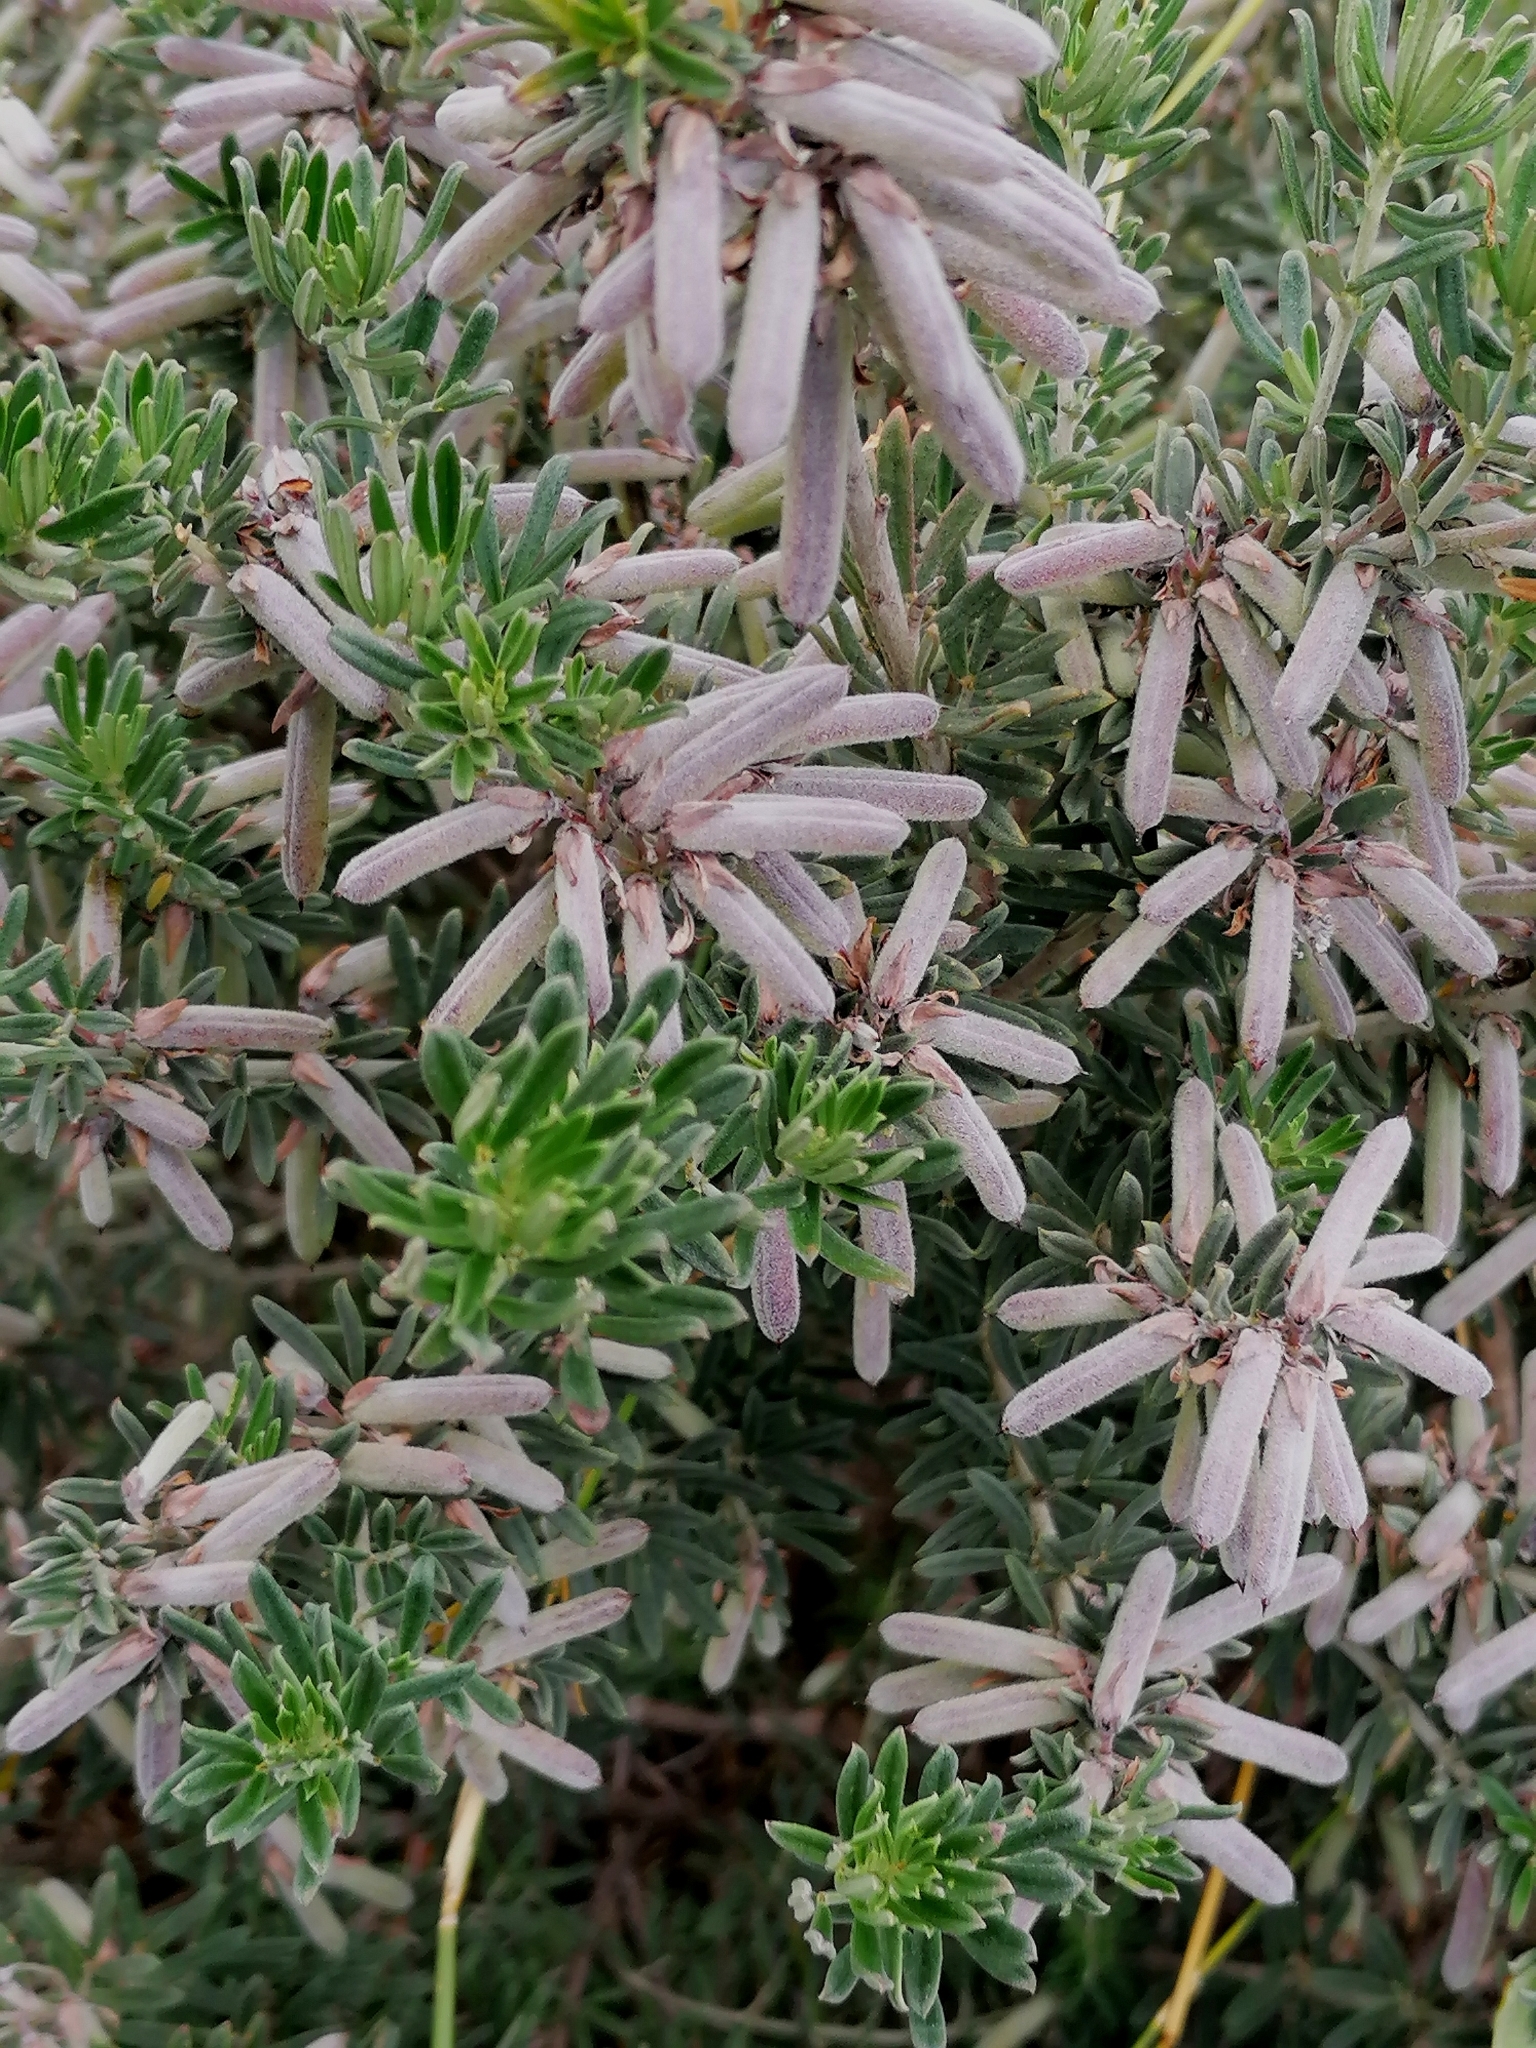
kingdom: Plantae
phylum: Tracheophyta
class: Magnoliopsida
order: Fabales
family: Fabaceae
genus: Indigofera
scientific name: Indigofera brachystachya
